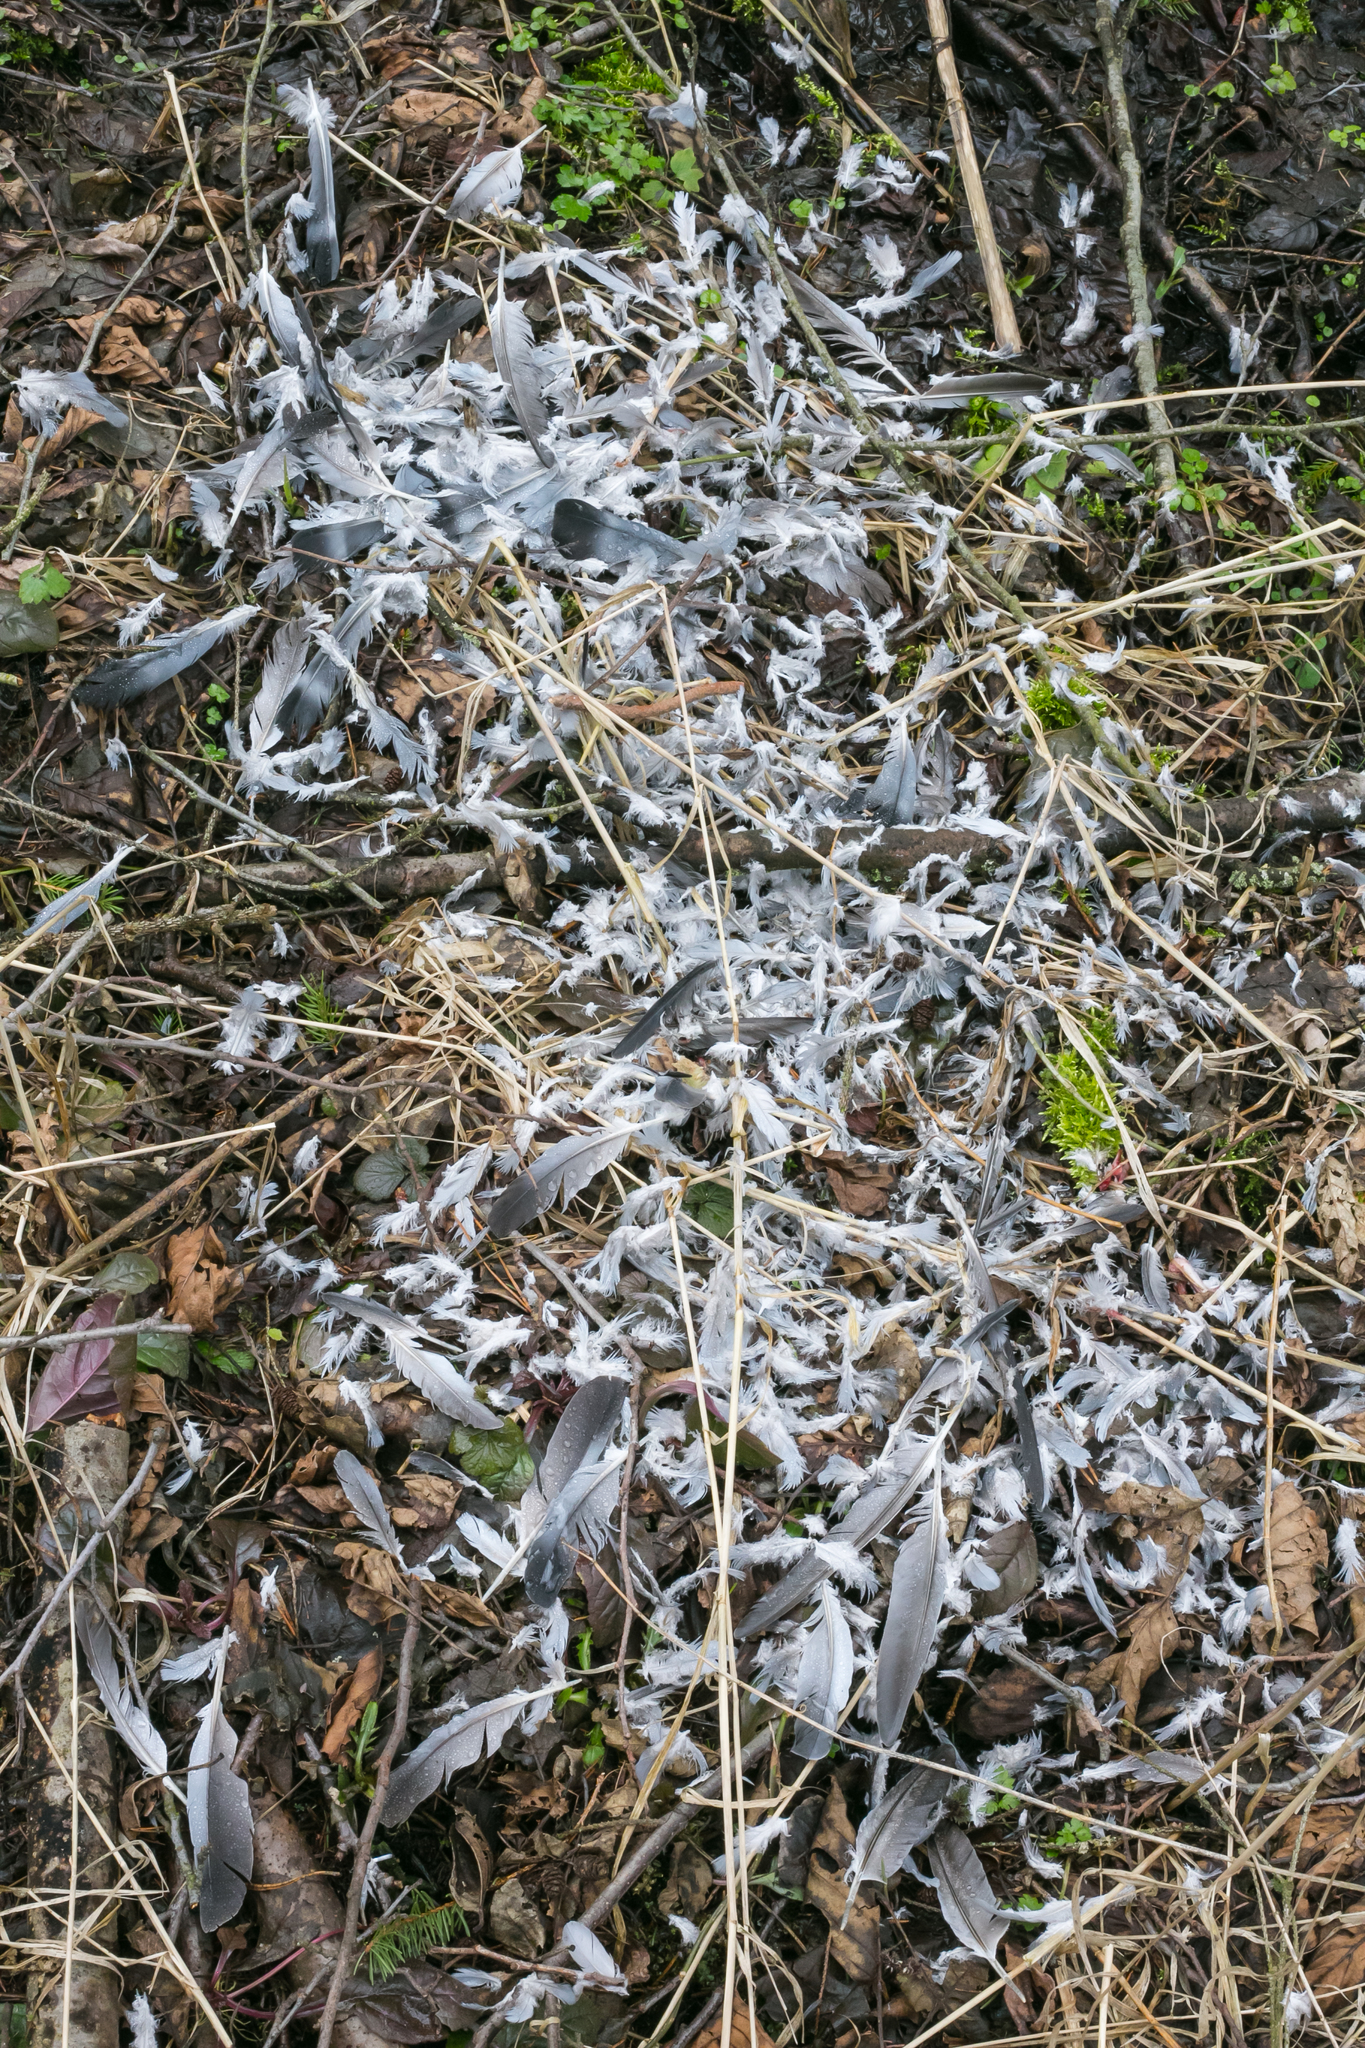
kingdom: Animalia
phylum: Chordata
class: Aves
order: Columbiformes
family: Columbidae
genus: Columba
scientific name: Columba palumbus
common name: Common wood pigeon
